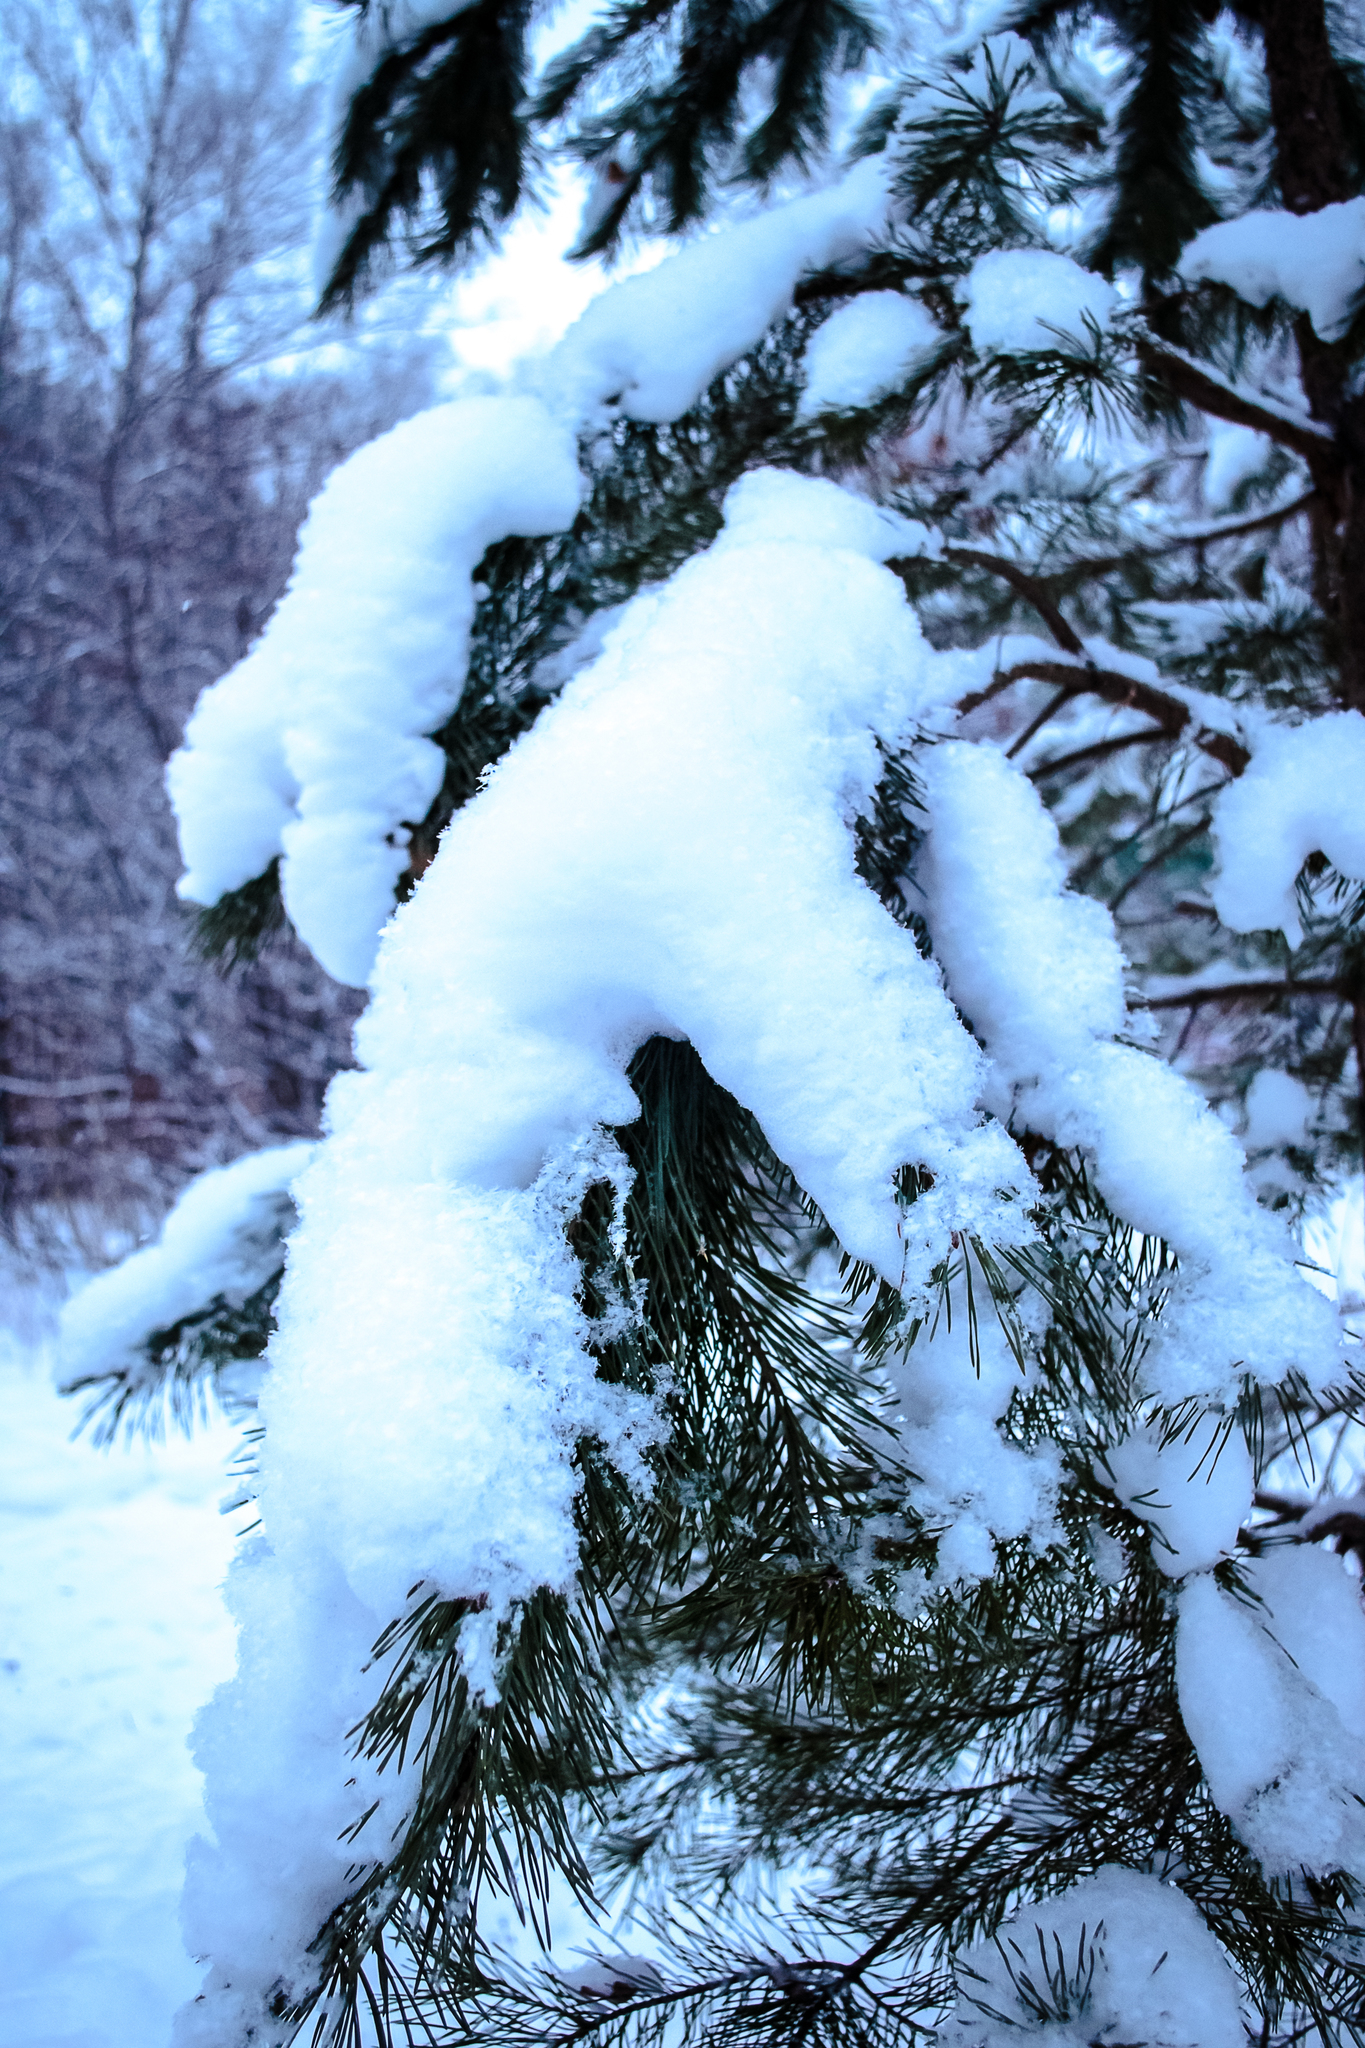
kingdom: Plantae
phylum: Tracheophyta
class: Pinopsida
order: Pinales
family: Pinaceae
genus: Pinus
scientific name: Pinus sylvestris
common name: Scots pine
